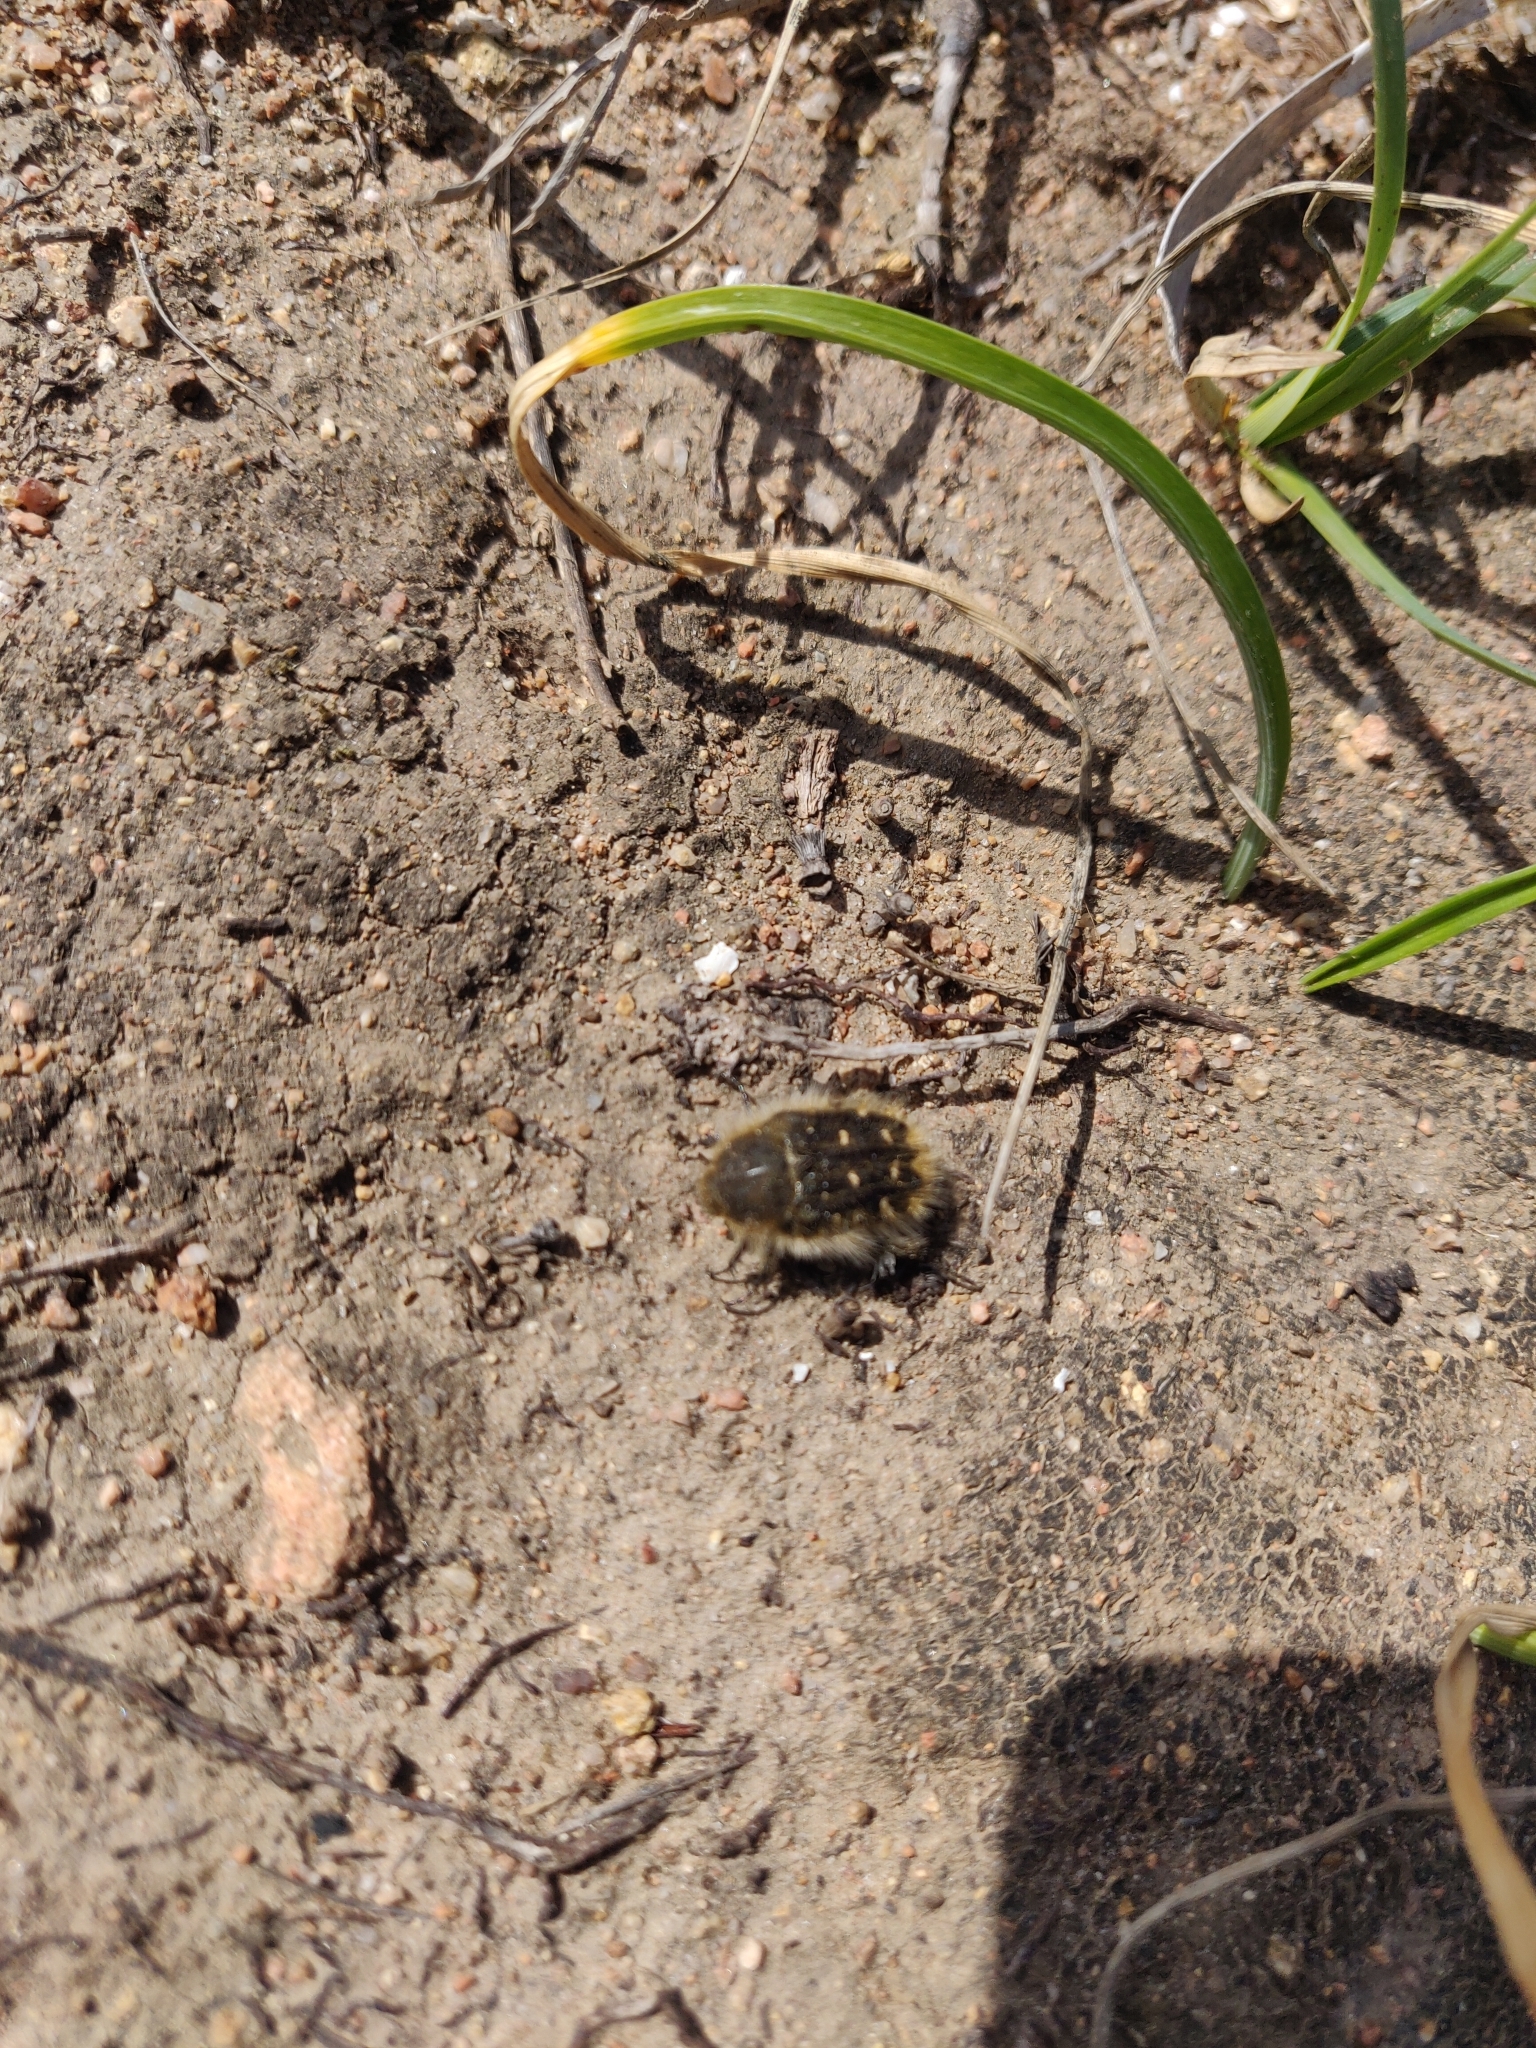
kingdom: Animalia
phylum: Arthropoda
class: Insecta
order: Coleoptera
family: Scarabaeidae
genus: Tropinota
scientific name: Tropinota squalida
